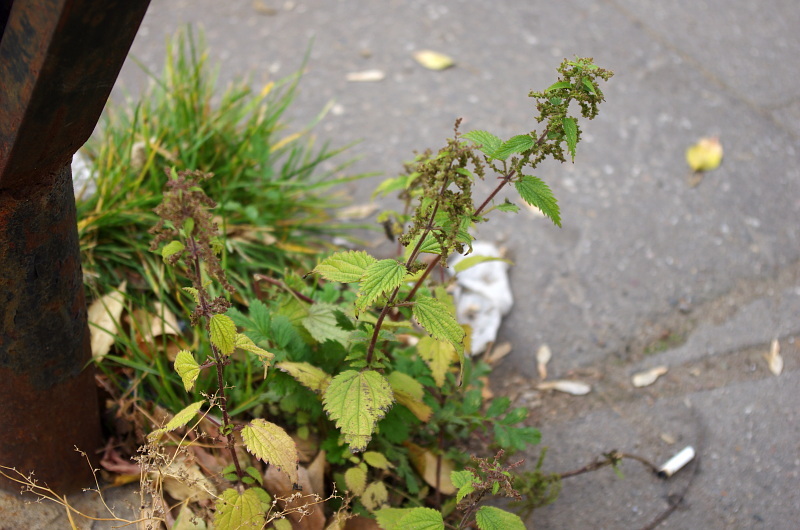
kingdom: Plantae
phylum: Tracheophyta
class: Magnoliopsida
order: Rosales
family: Urticaceae
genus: Urtica
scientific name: Urtica dioica
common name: Common nettle
